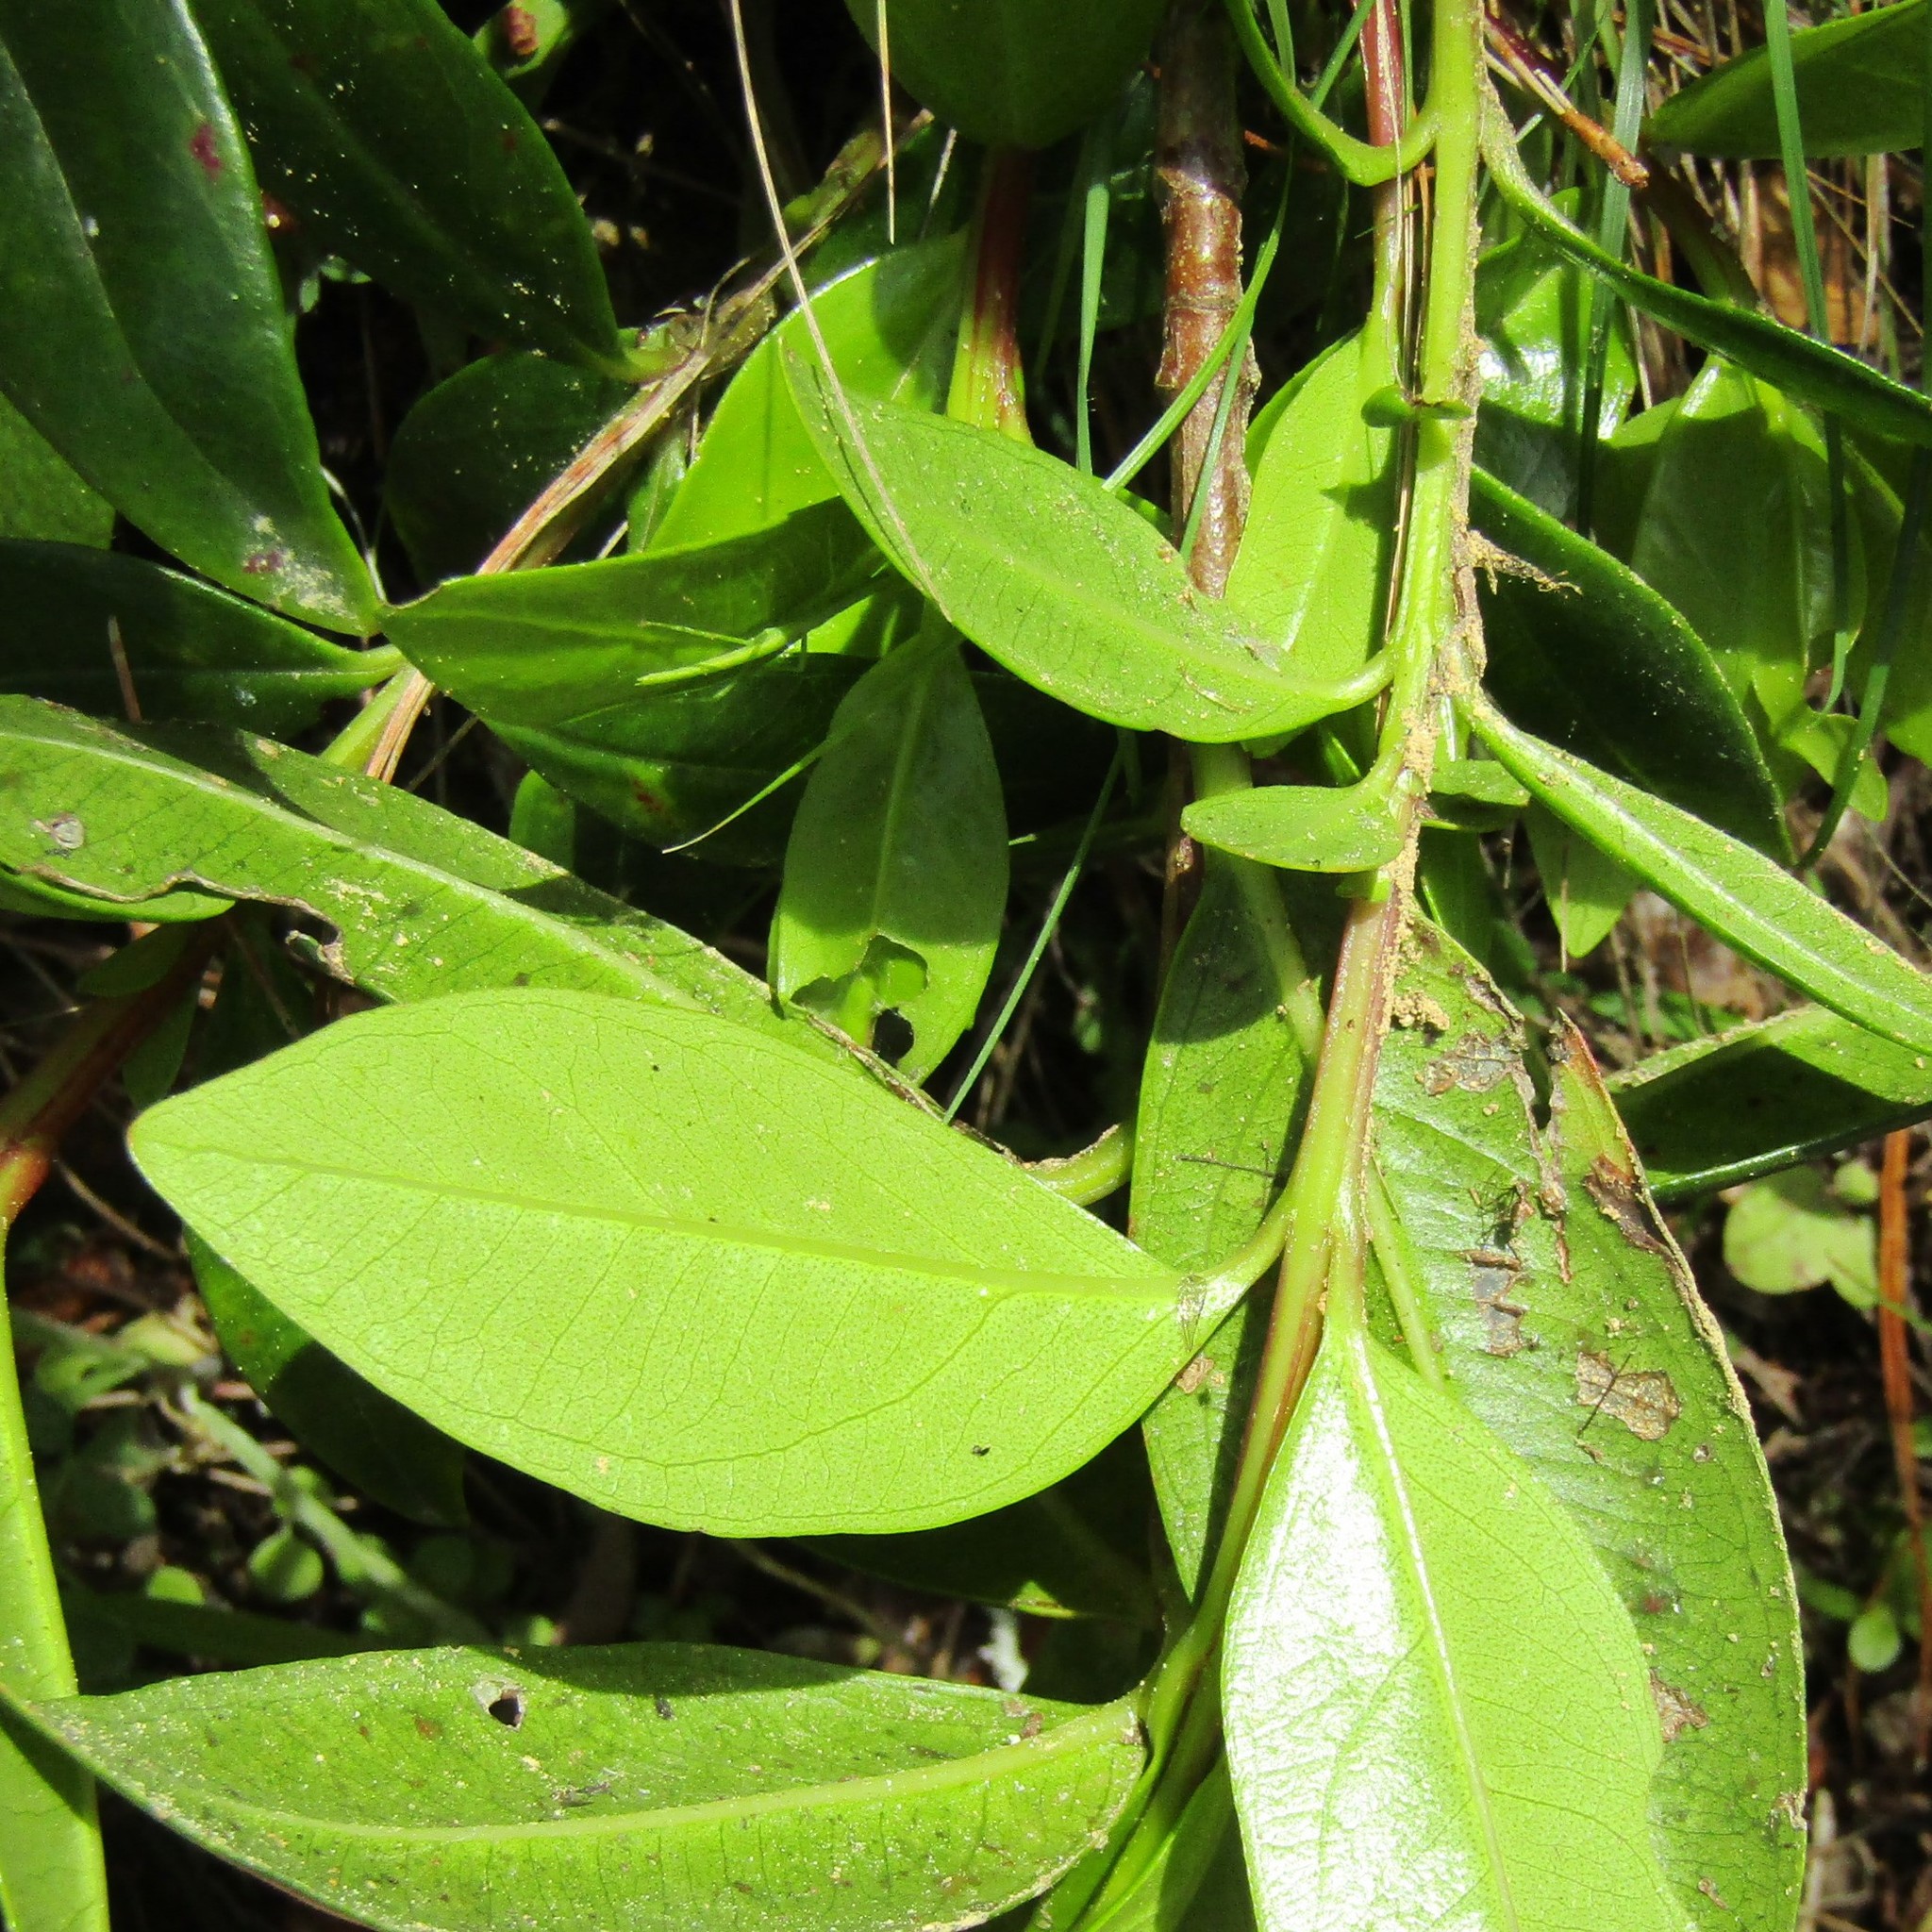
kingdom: Plantae
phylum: Tracheophyta
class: Magnoliopsida
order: Myrtales
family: Myrtaceae
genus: Metrosideros
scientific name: Metrosideros excelsa
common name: New zealand christmastree
